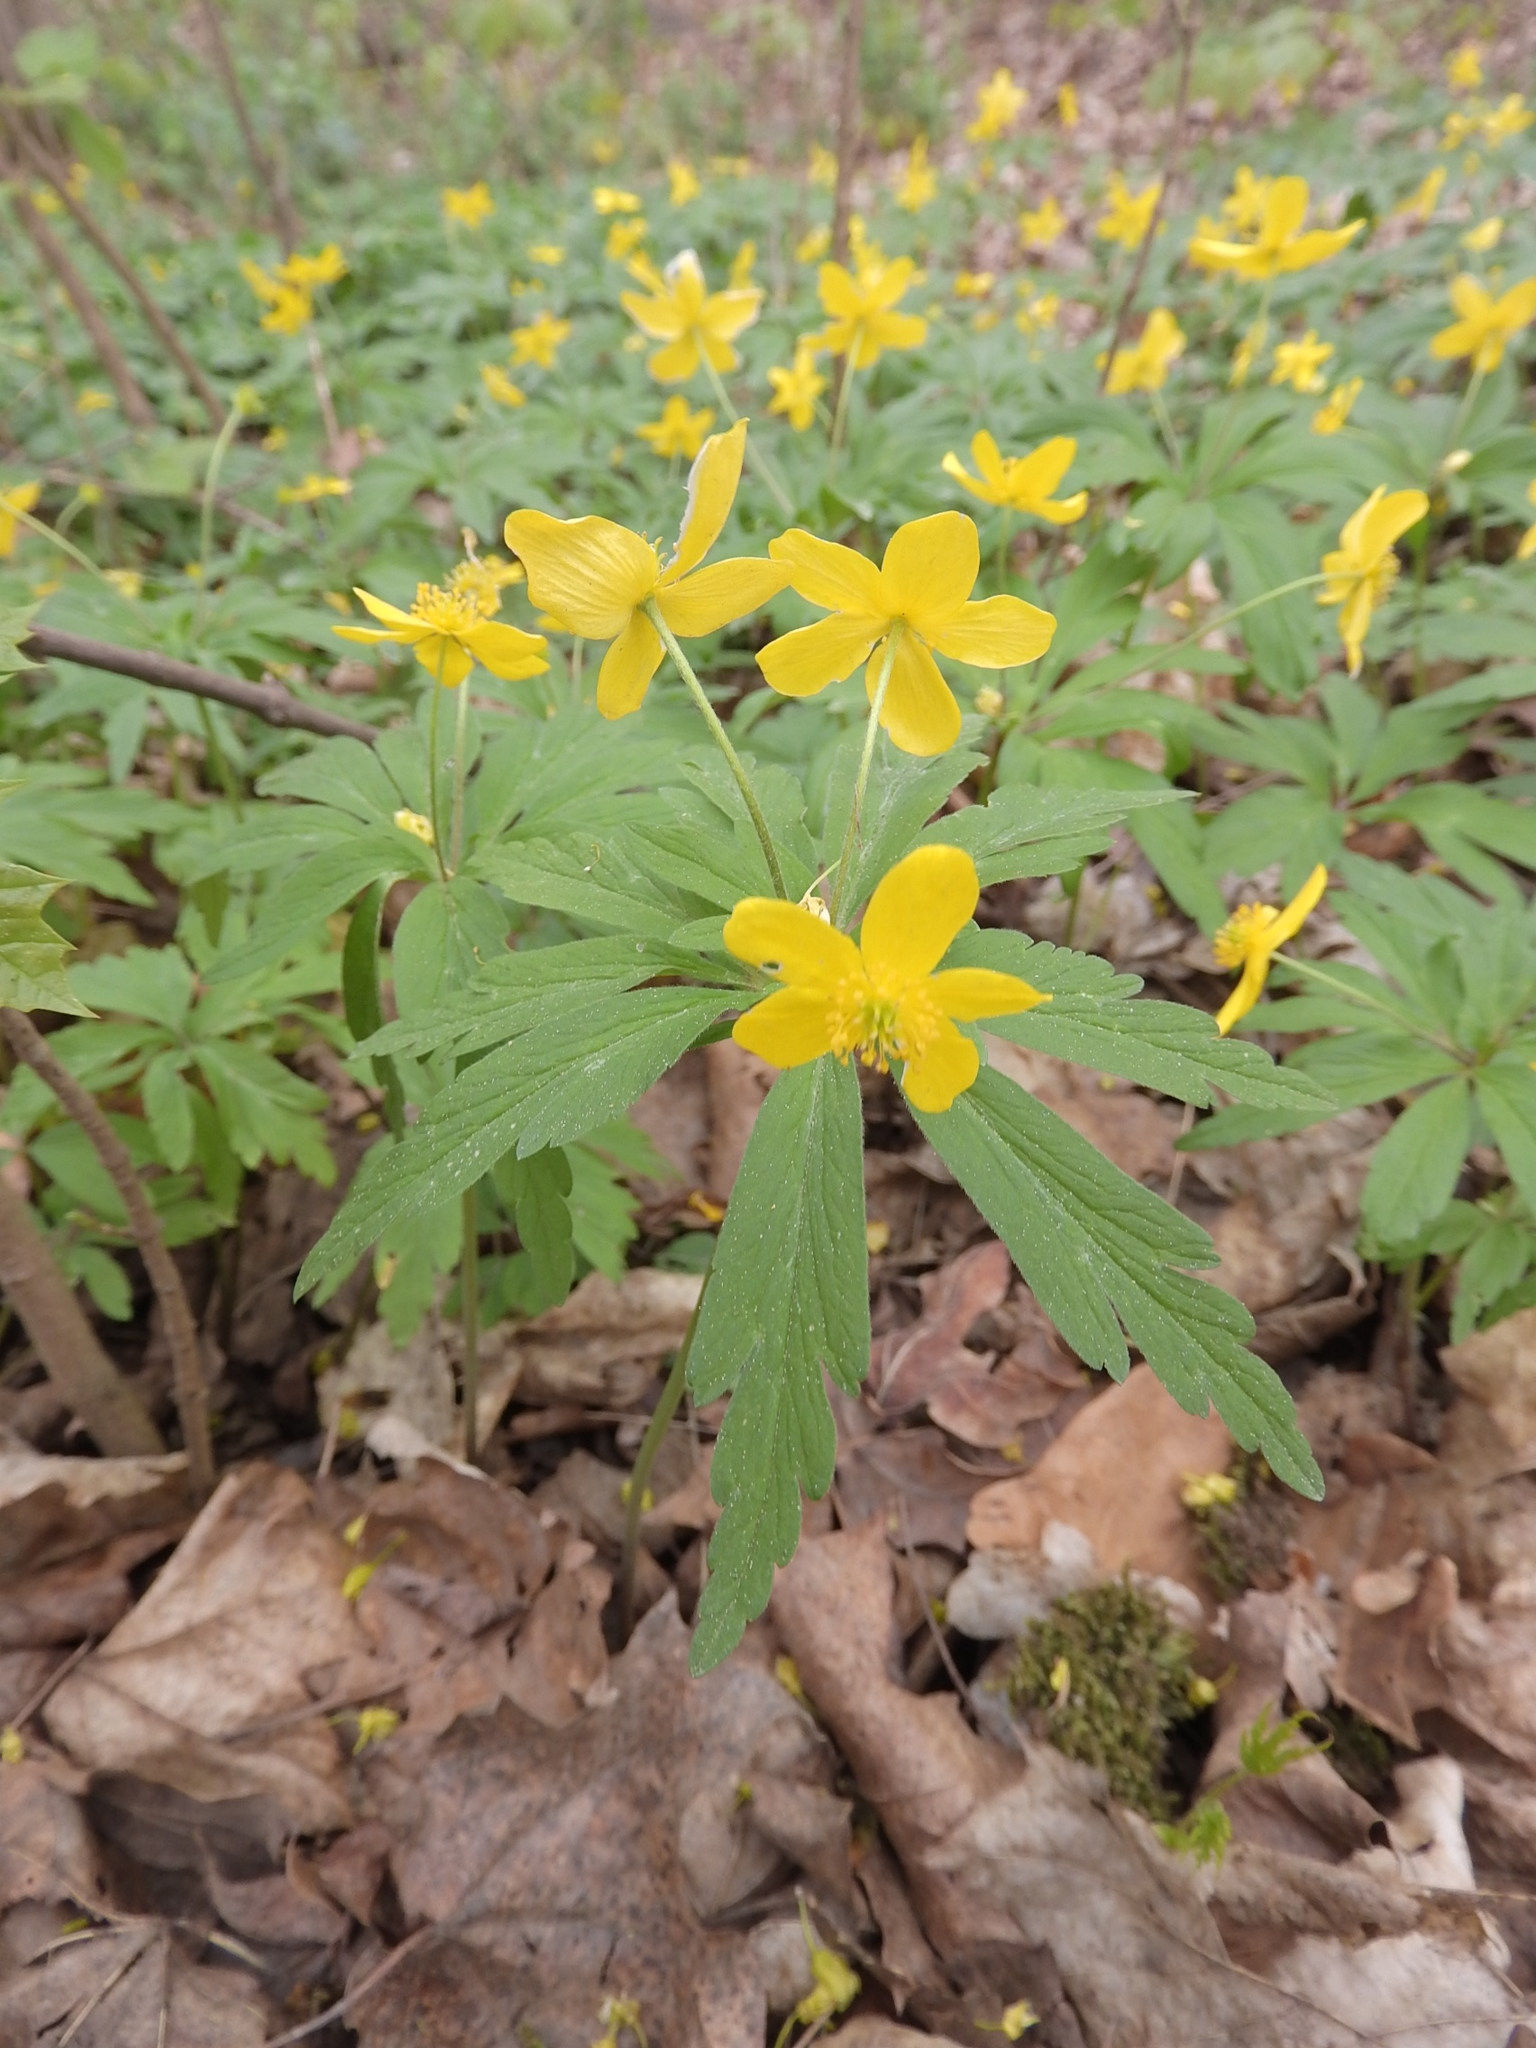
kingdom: Plantae
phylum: Tracheophyta
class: Magnoliopsida
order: Ranunculales
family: Ranunculaceae
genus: Anemone
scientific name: Anemone ranunculoides
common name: Yellow anemone
